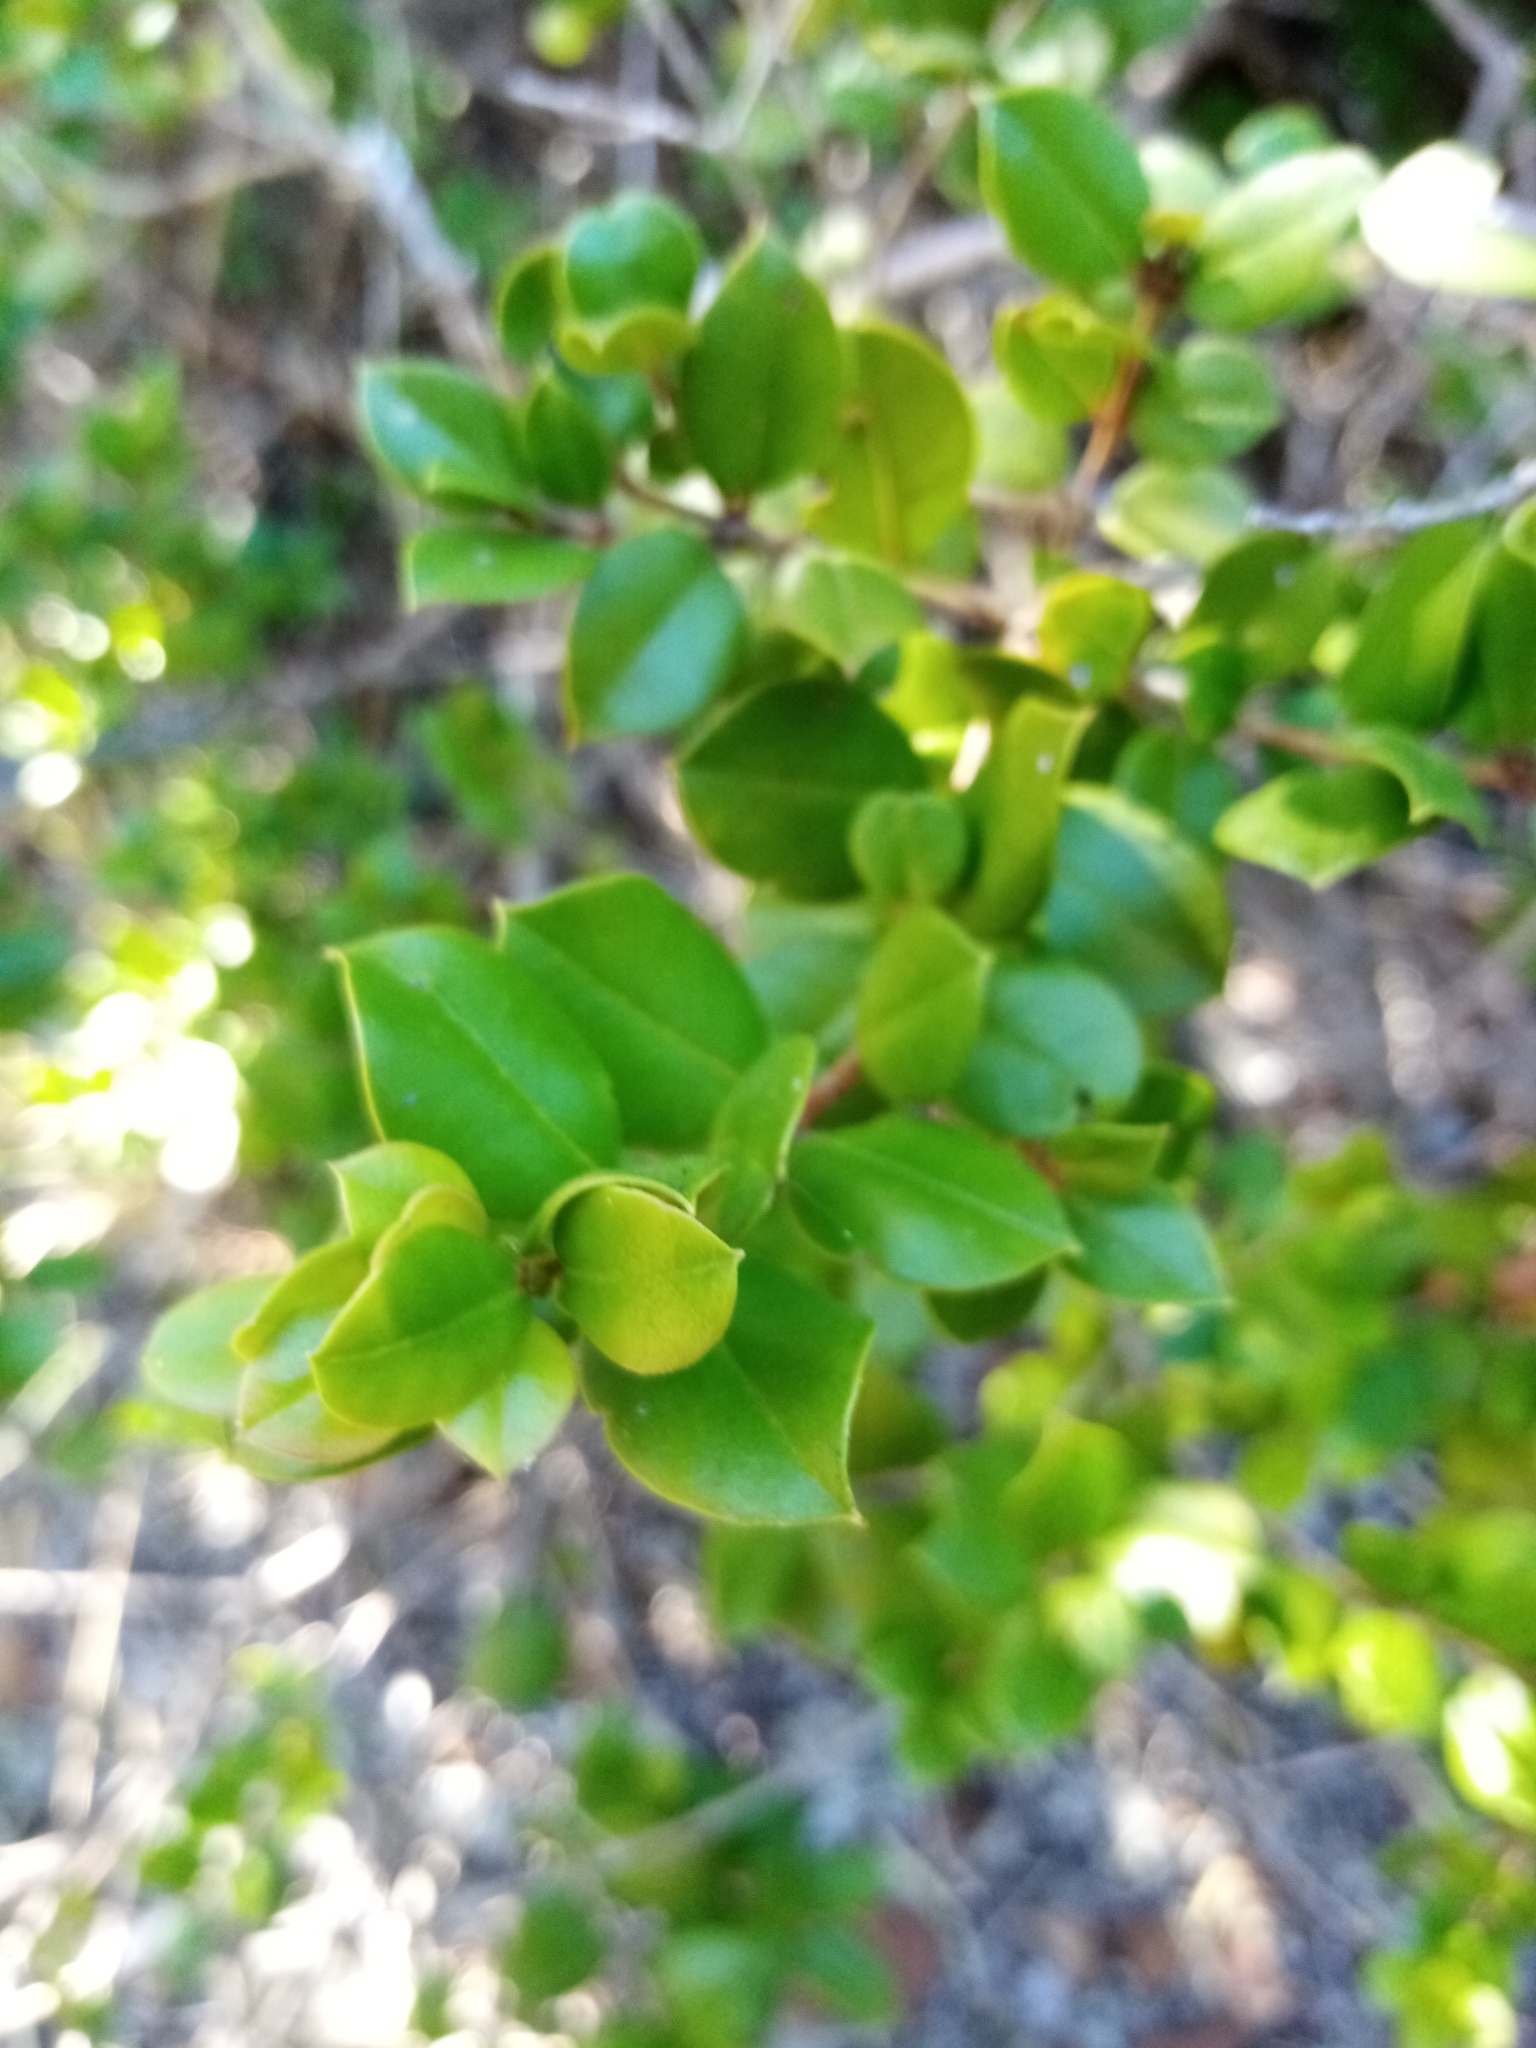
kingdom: Plantae
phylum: Tracheophyta
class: Magnoliopsida
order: Myrtales
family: Myrtaceae
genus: Luma
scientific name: Luma chequen
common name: Cheken
